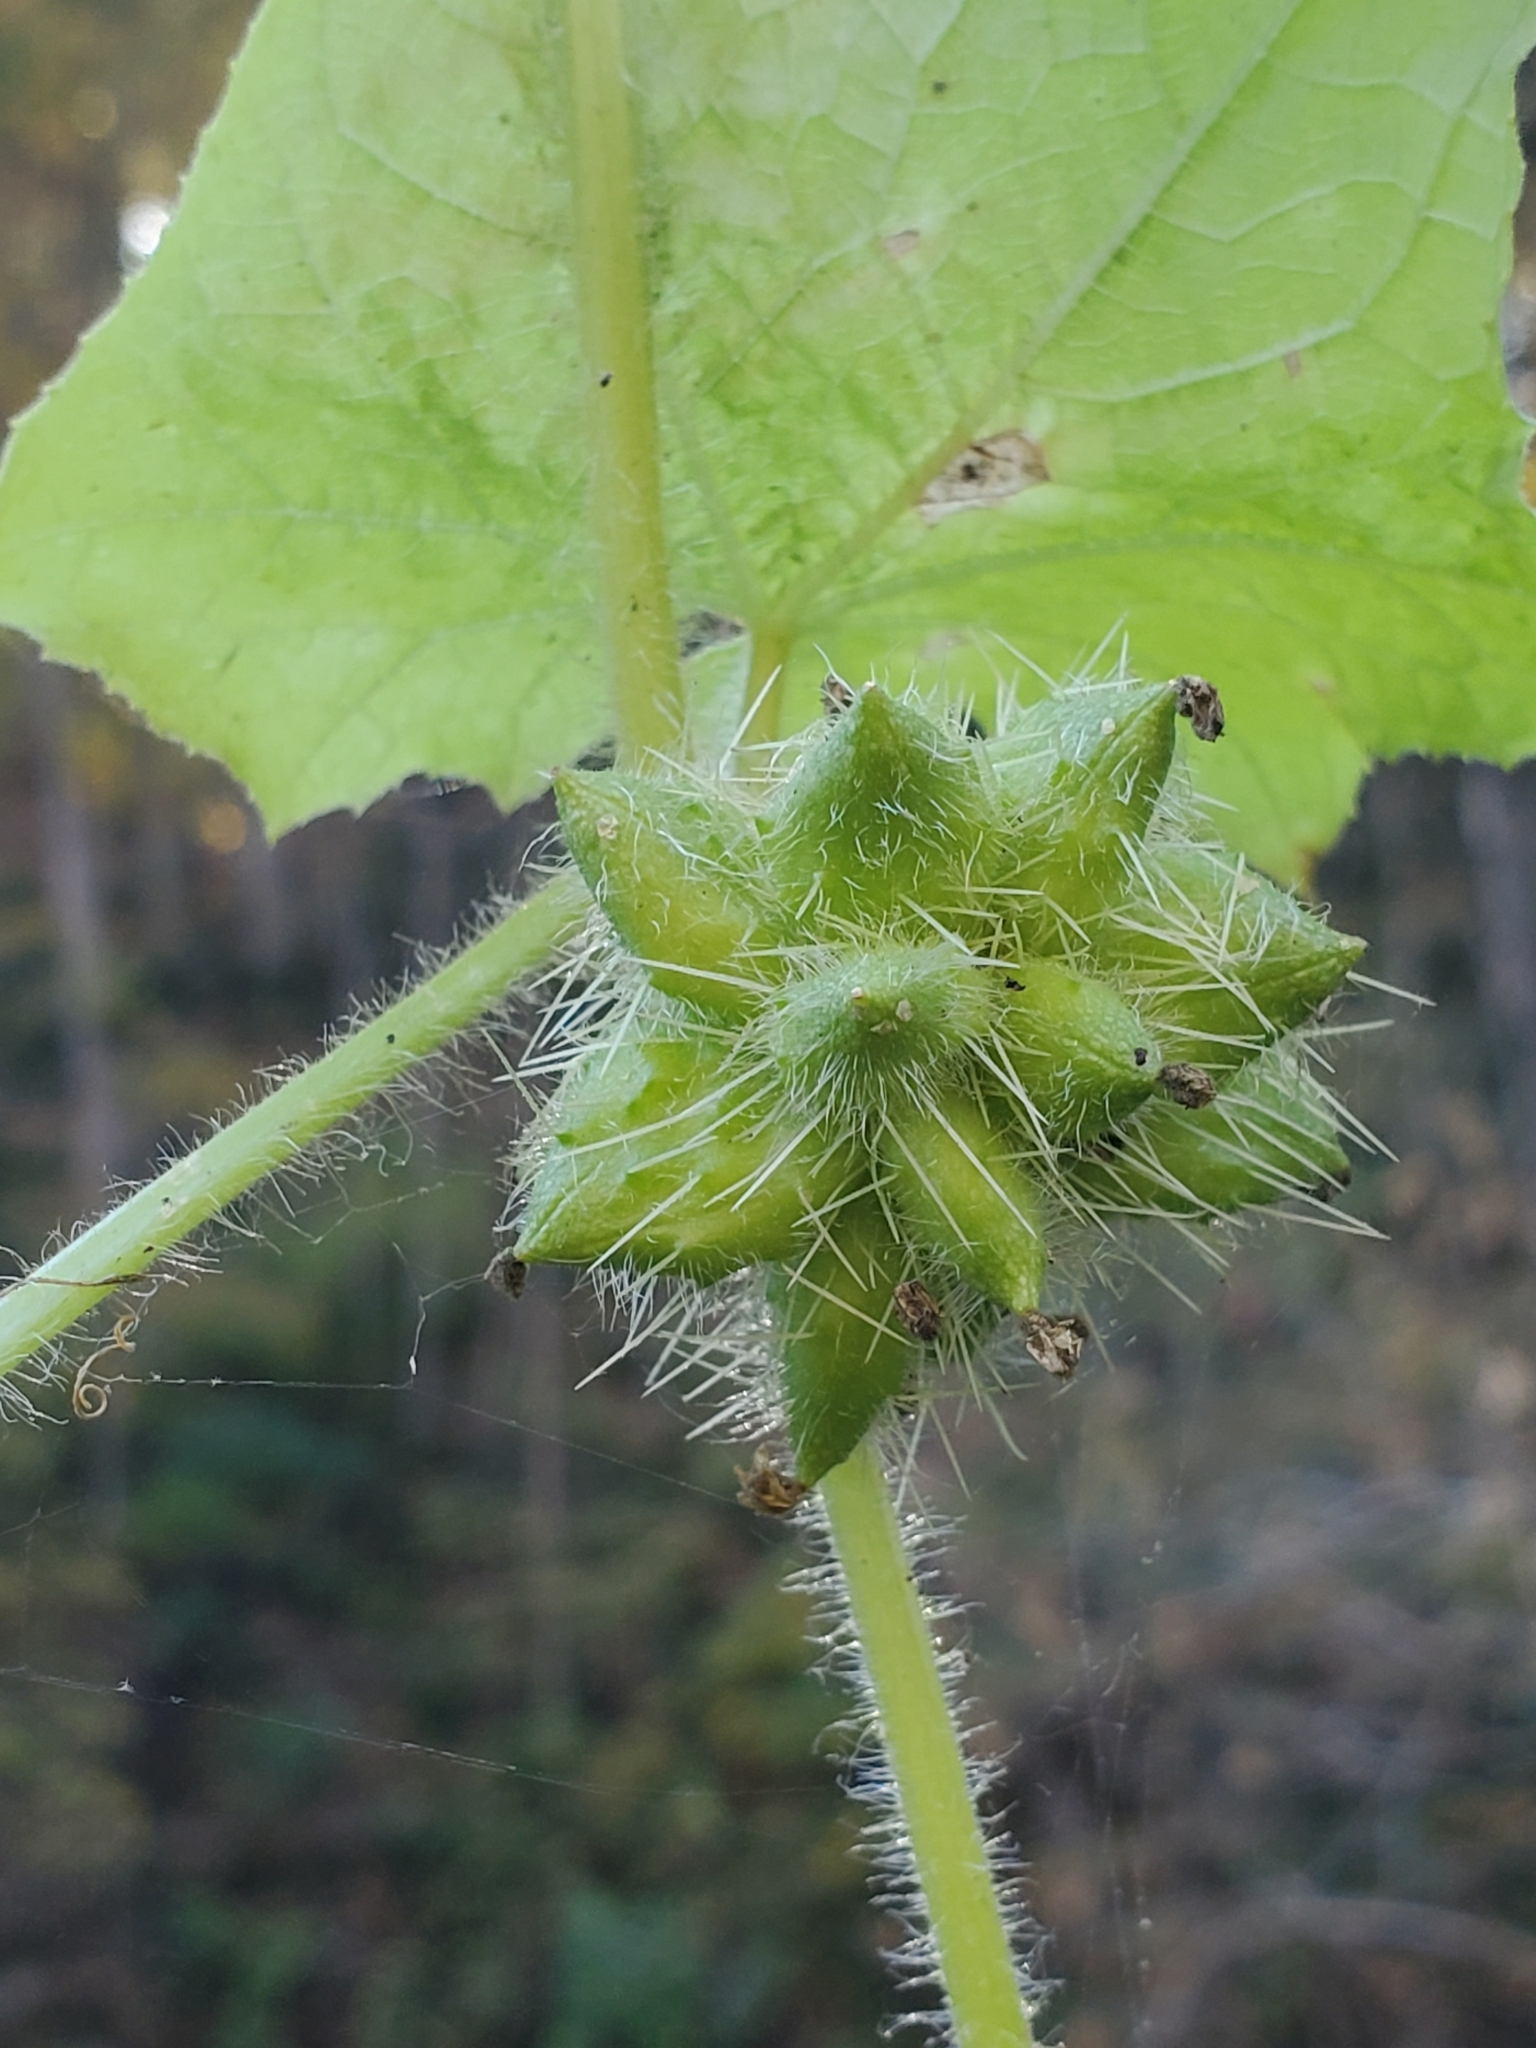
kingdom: Plantae
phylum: Tracheophyta
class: Magnoliopsida
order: Cucurbitales
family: Cucurbitaceae
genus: Sicyos
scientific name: Sicyos angulatus
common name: Angled burr cucumber
